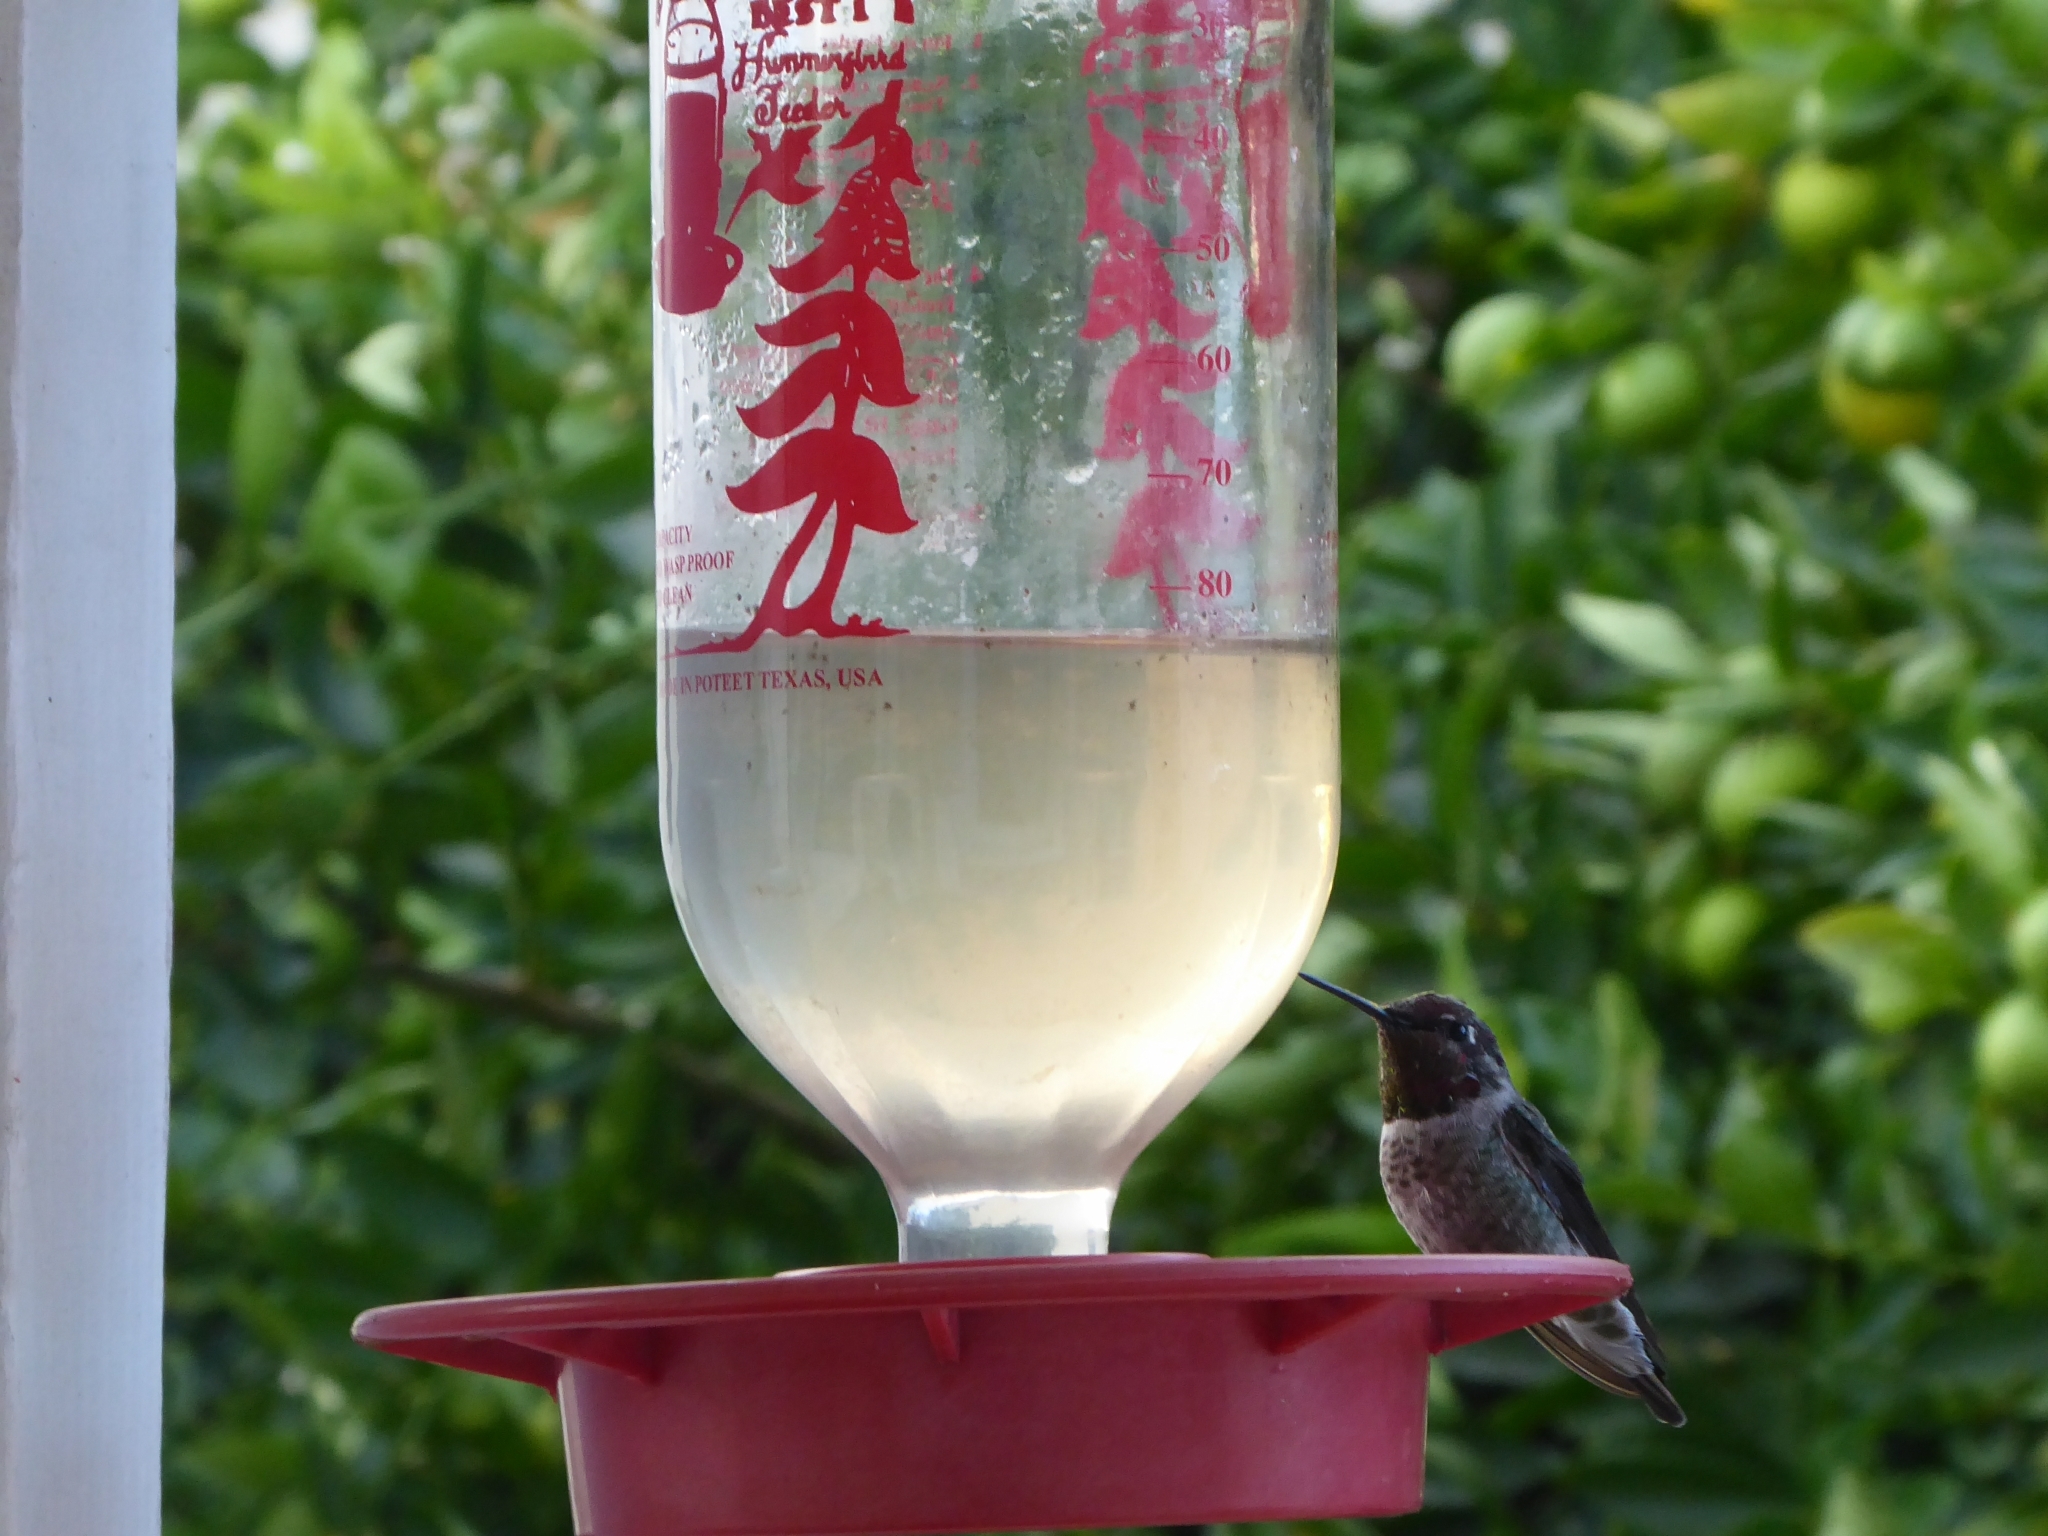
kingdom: Animalia
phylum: Chordata
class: Aves
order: Apodiformes
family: Trochilidae
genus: Calypte
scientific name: Calypte anna
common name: Anna's hummingbird
